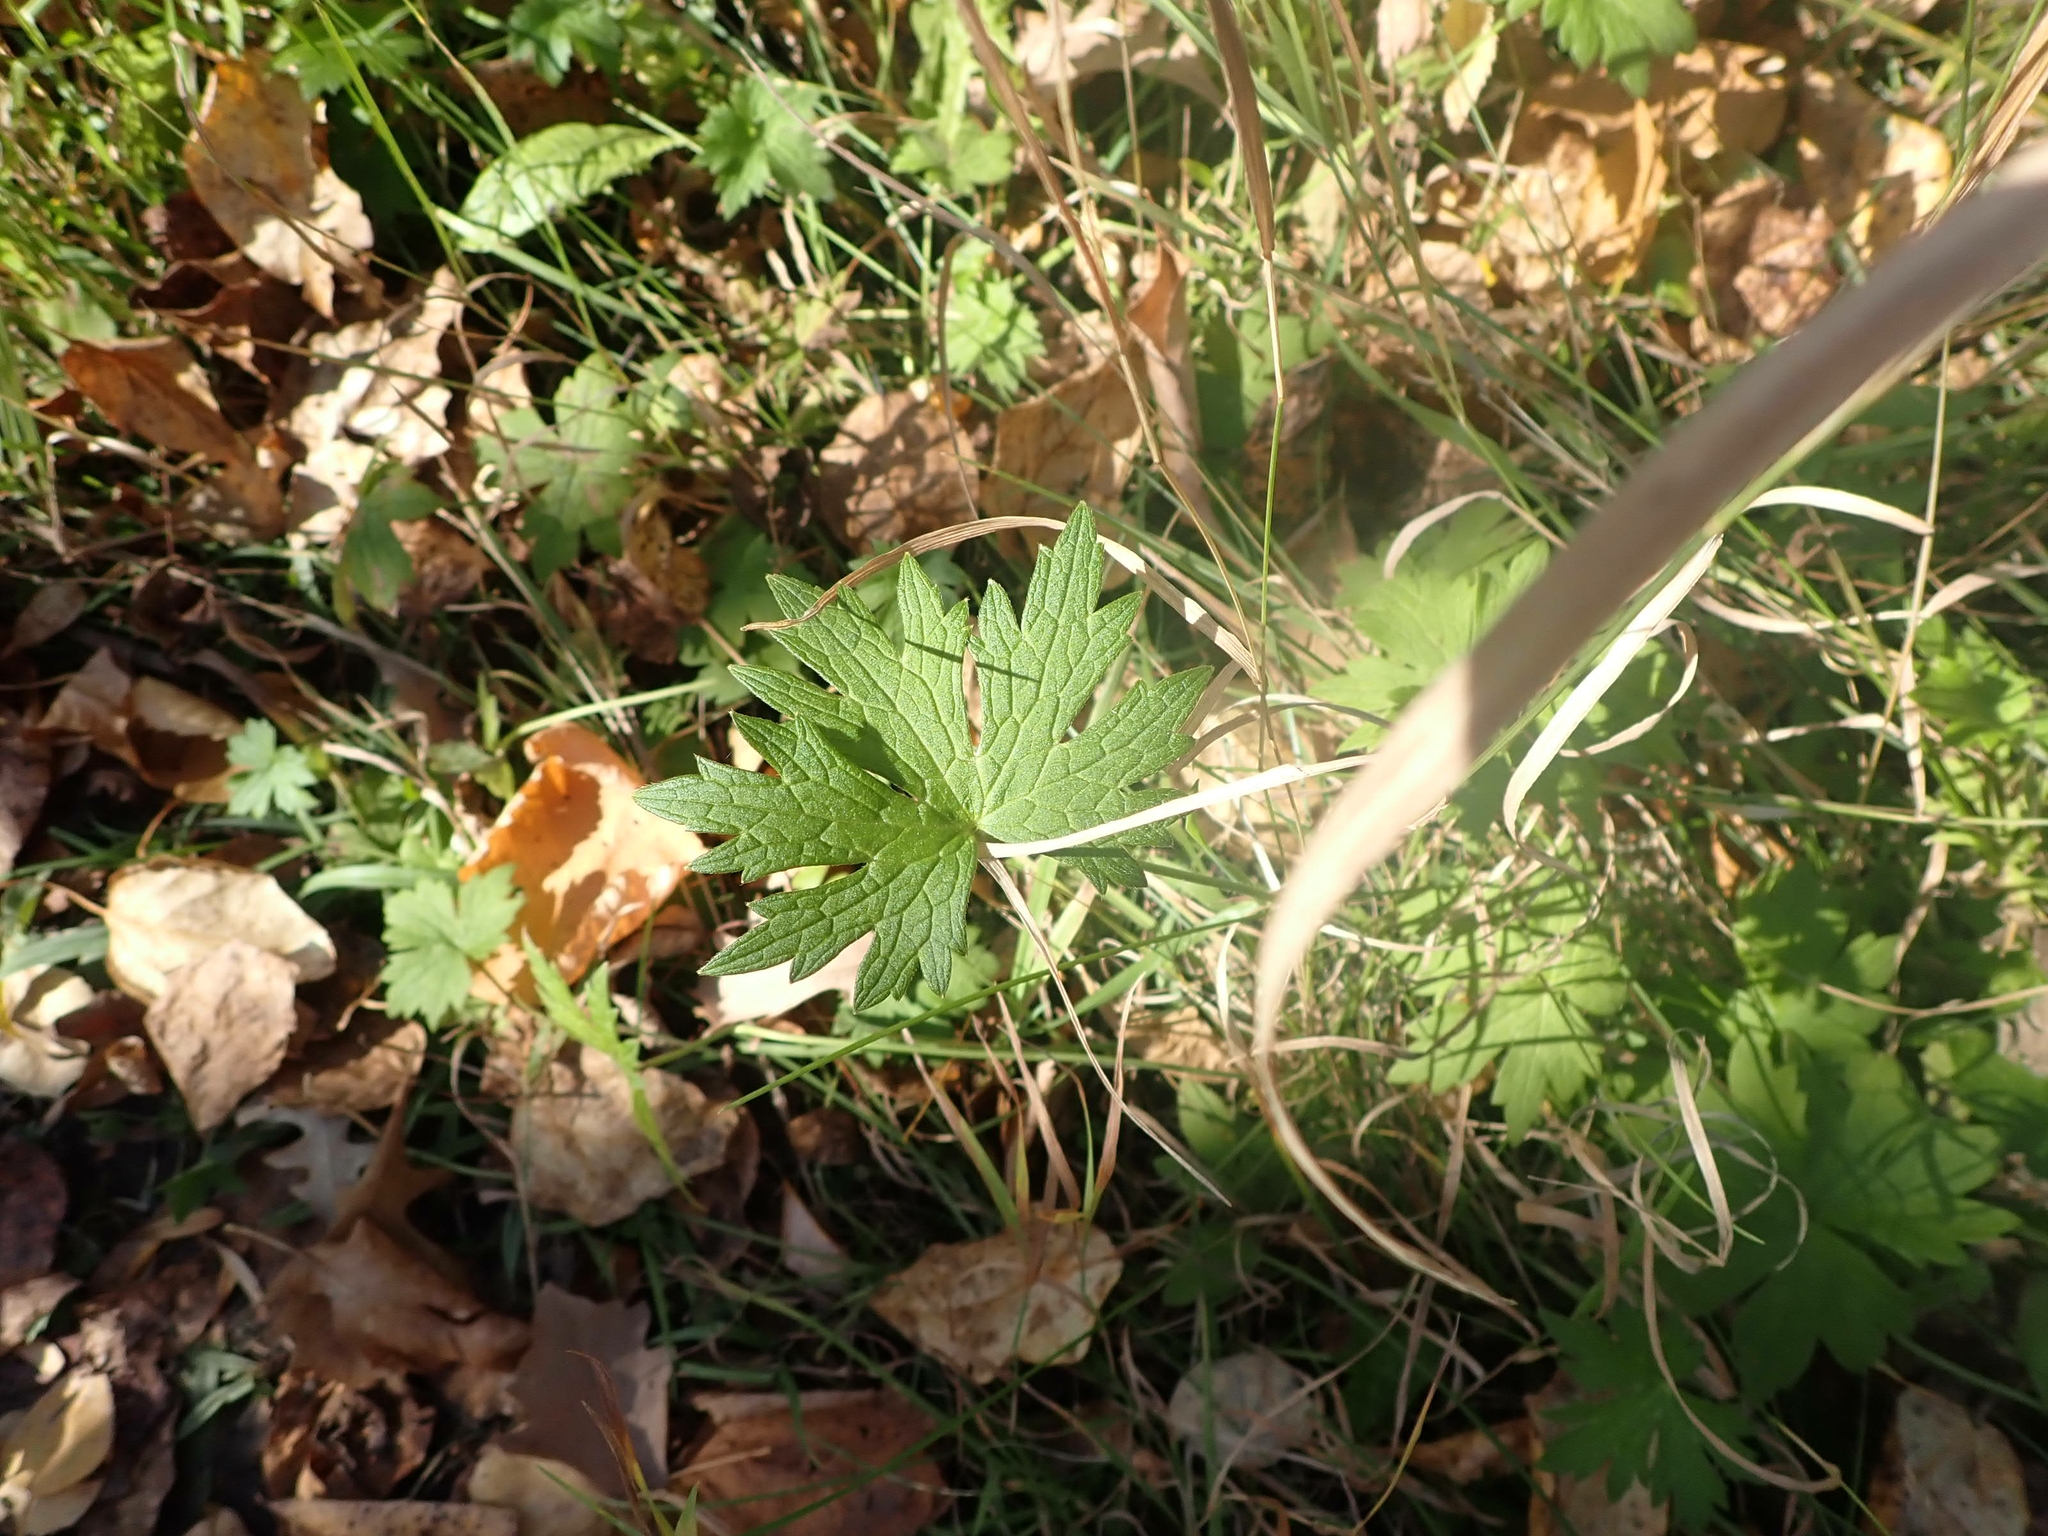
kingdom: Plantae
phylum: Tracheophyta
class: Magnoliopsida
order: Asterales
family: Asteraceae
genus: Petasites
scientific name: Petasites frigidus
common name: Arctic butterbur
